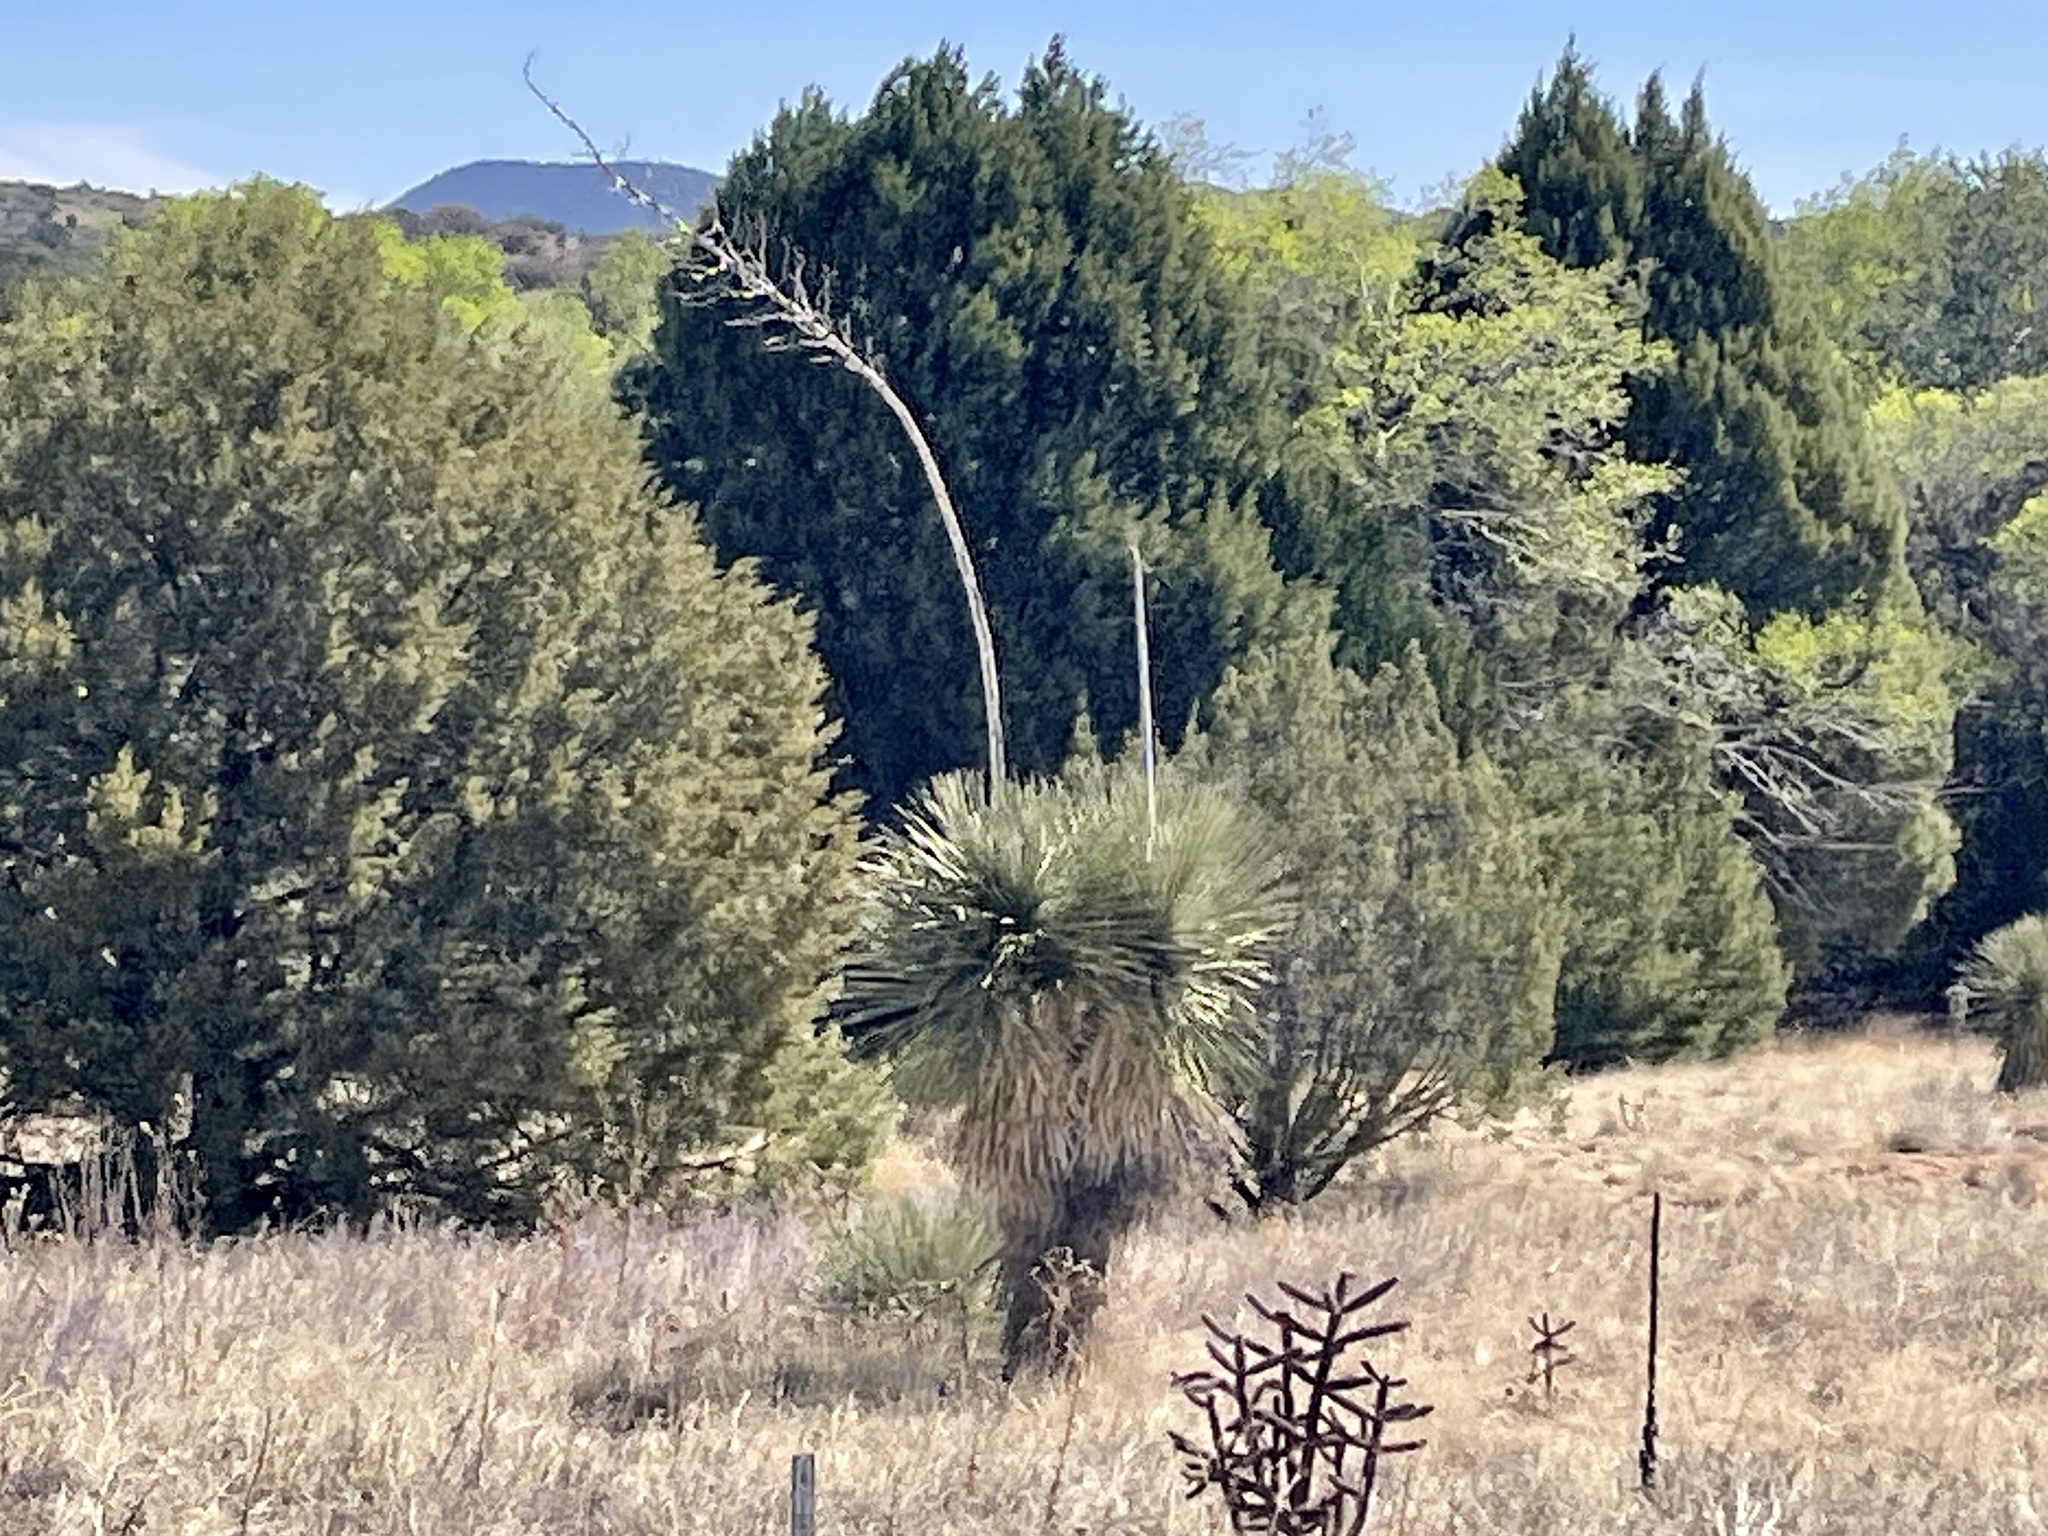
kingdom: Plantae
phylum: Tracheophyta
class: Liliopsida
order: Asparagales
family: Asparagaceae
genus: Yucca
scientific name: Yucca elata
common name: Palmella
